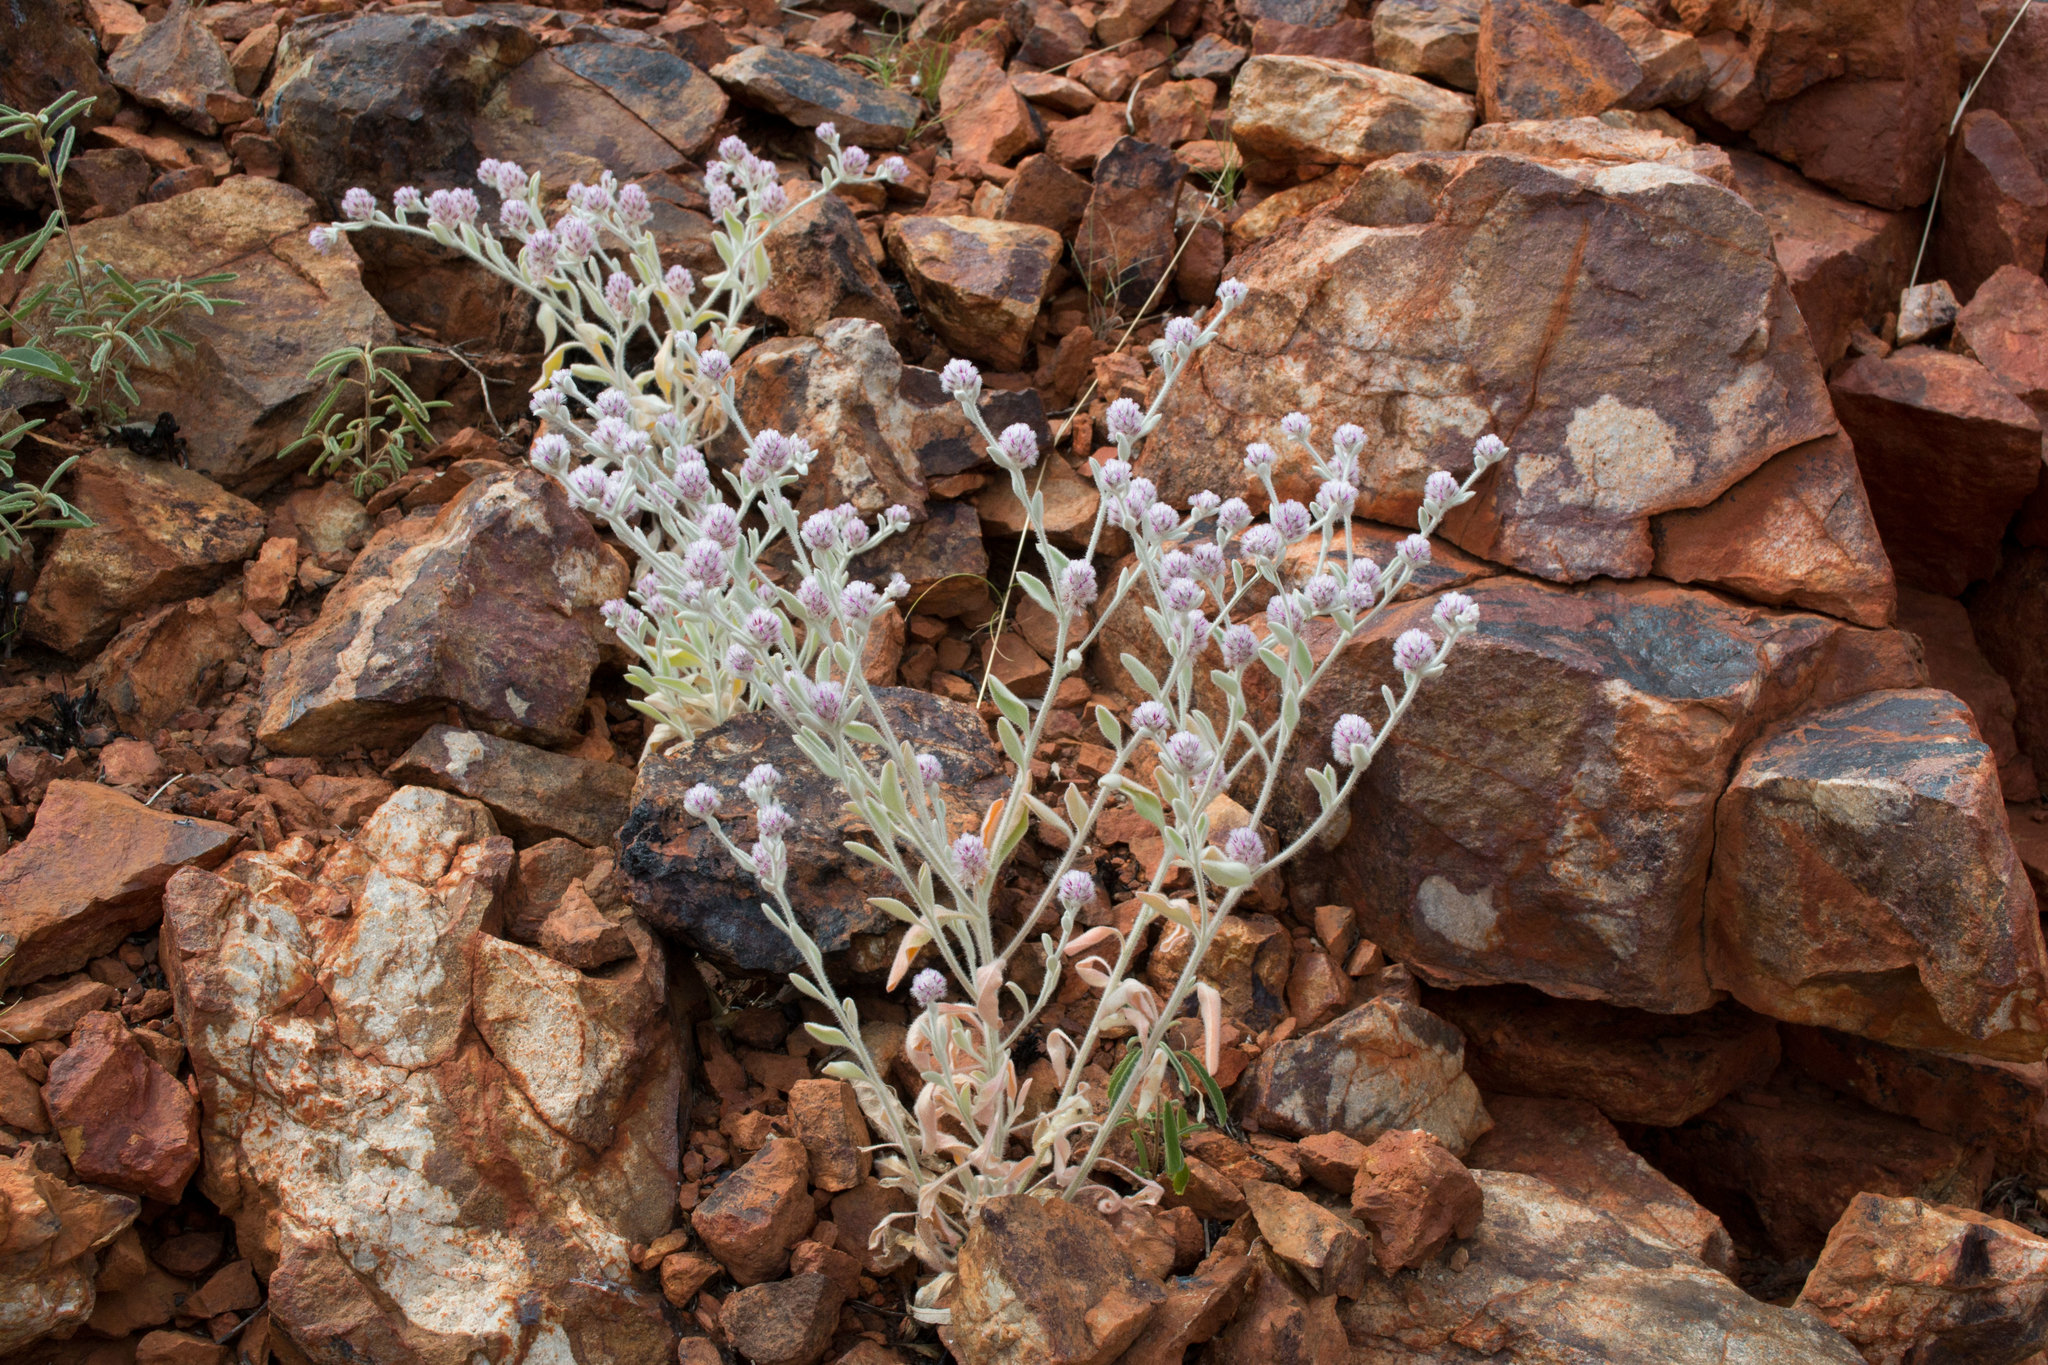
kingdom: Plantae
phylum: Tracheophyta
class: Magnoliopsida
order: Caryophyllales
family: Amaranthaceae
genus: Ptilotus
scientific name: Ptilotus incanus
